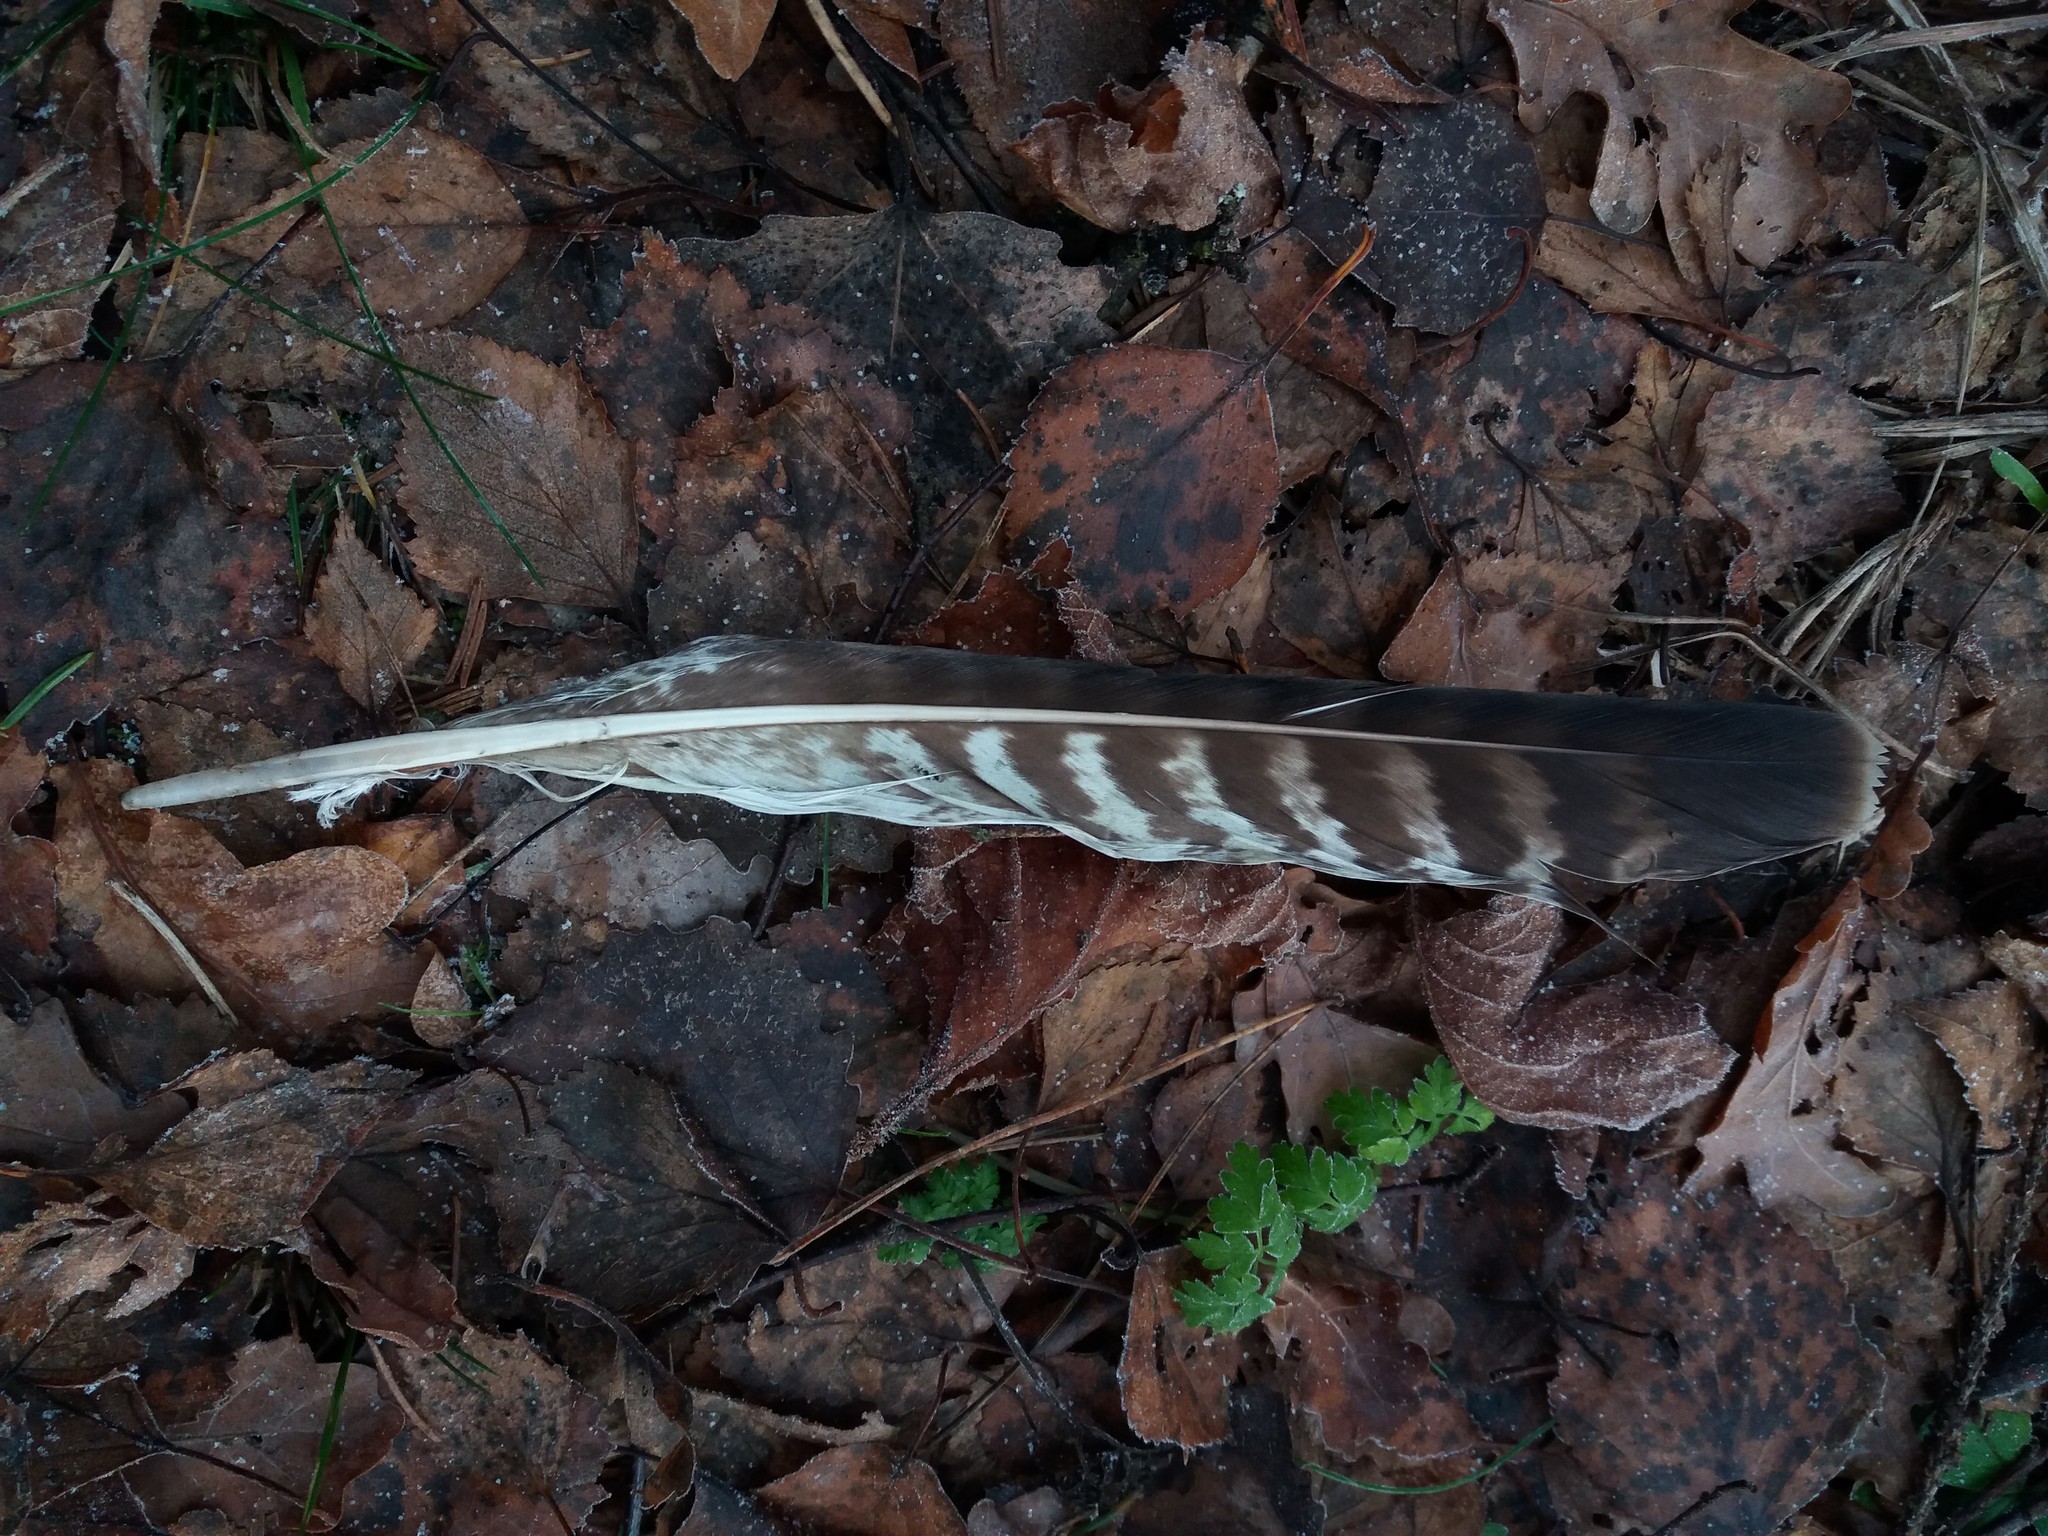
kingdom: Animalia
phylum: Chordata
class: Aves
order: Accipitriformes
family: Accipitridae
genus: Buteo
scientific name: Buteo buteo
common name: Common buzzard
